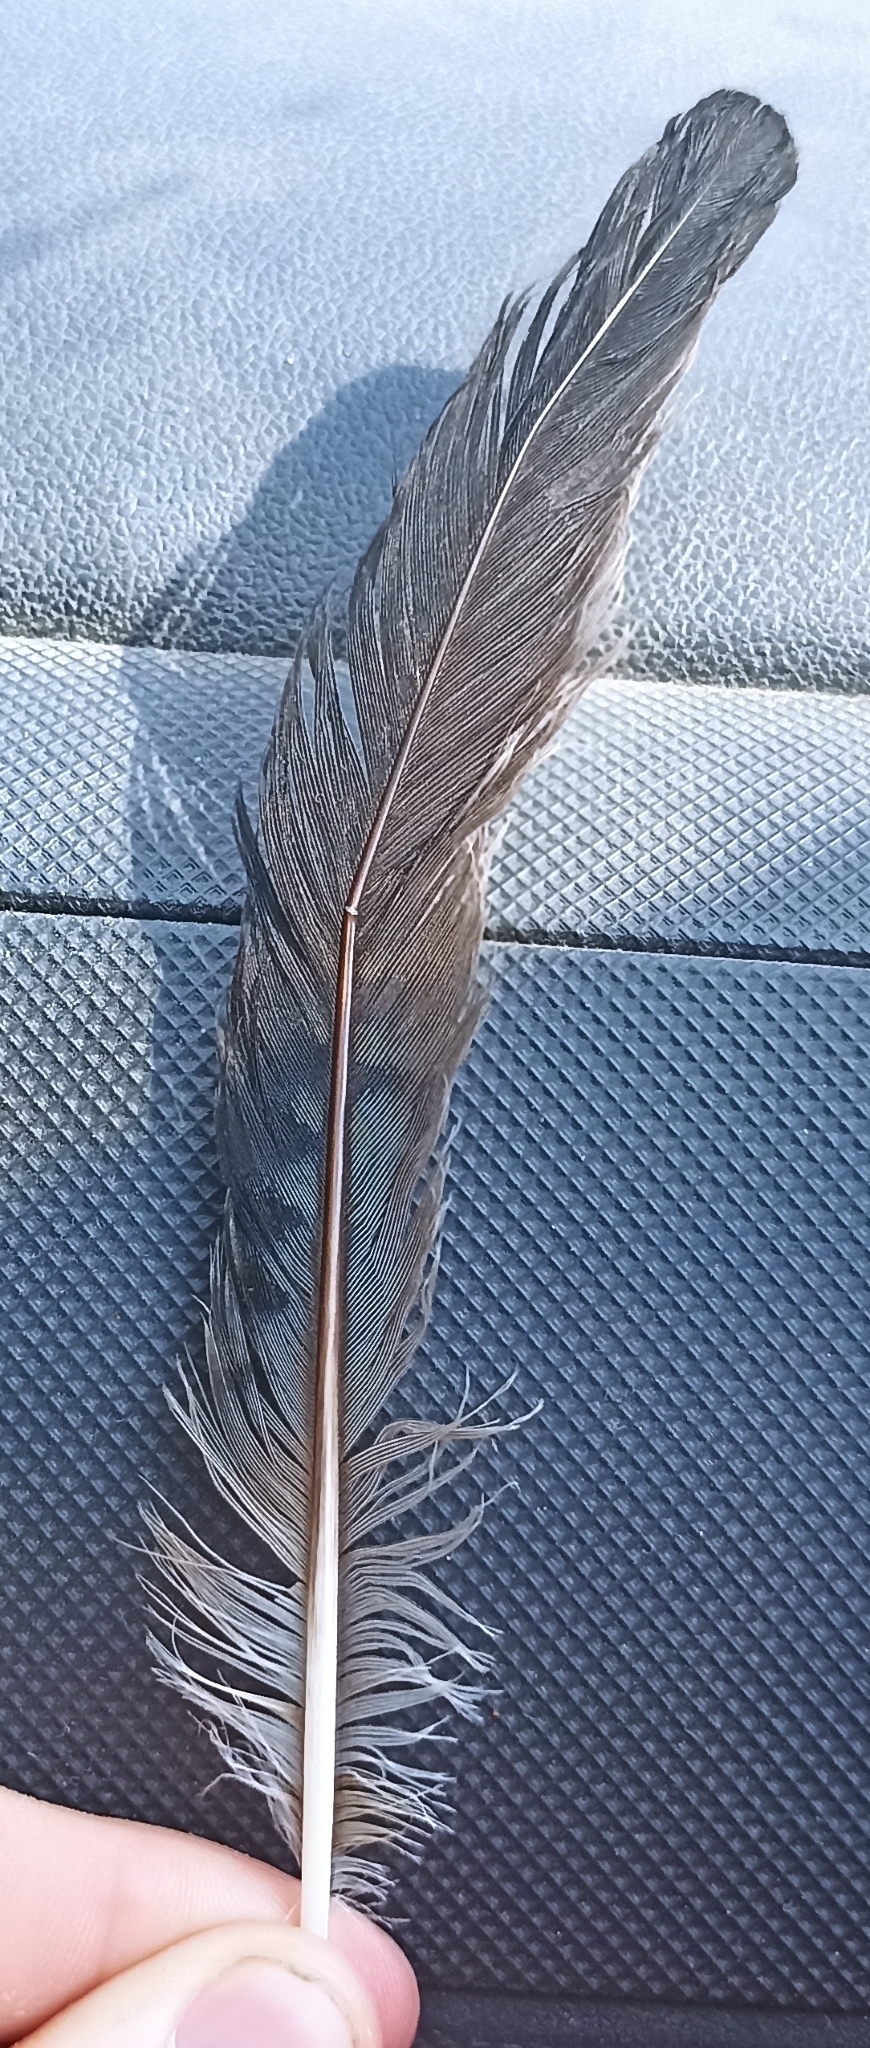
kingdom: Animalia
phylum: Chordata
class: Aves
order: Passeriformes
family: Corvidae
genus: Garrulus
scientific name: Garrulus glandarius
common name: Eurasian jay
